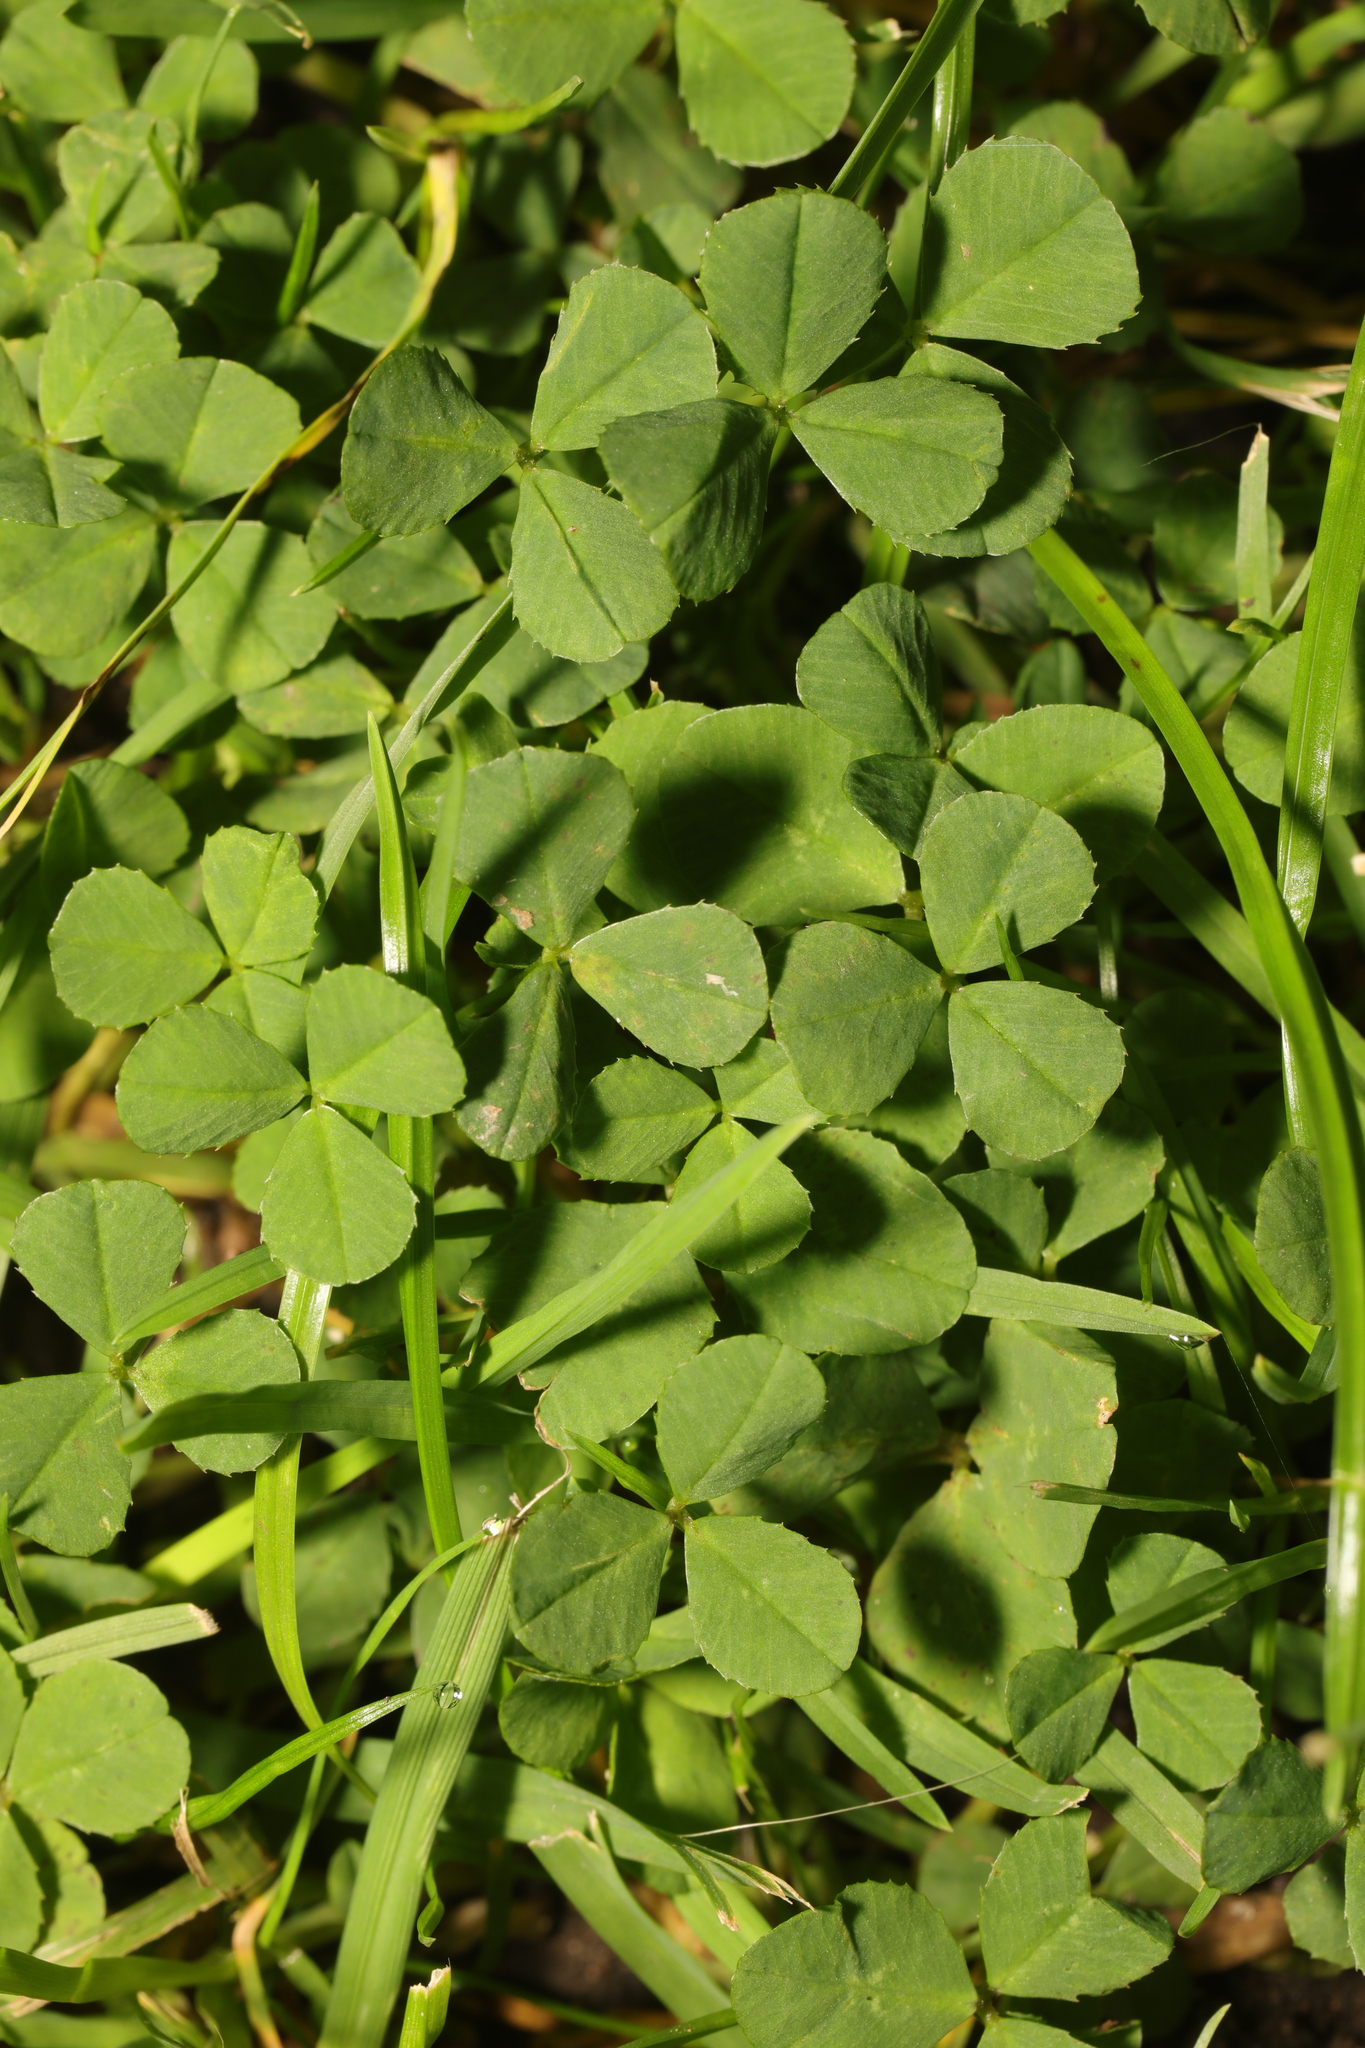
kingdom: Plantae
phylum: Tracheophyta
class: Magnoliopsida
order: Fabales
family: Fabaceae
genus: Trifolium
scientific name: Trifolium repens
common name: White clover
